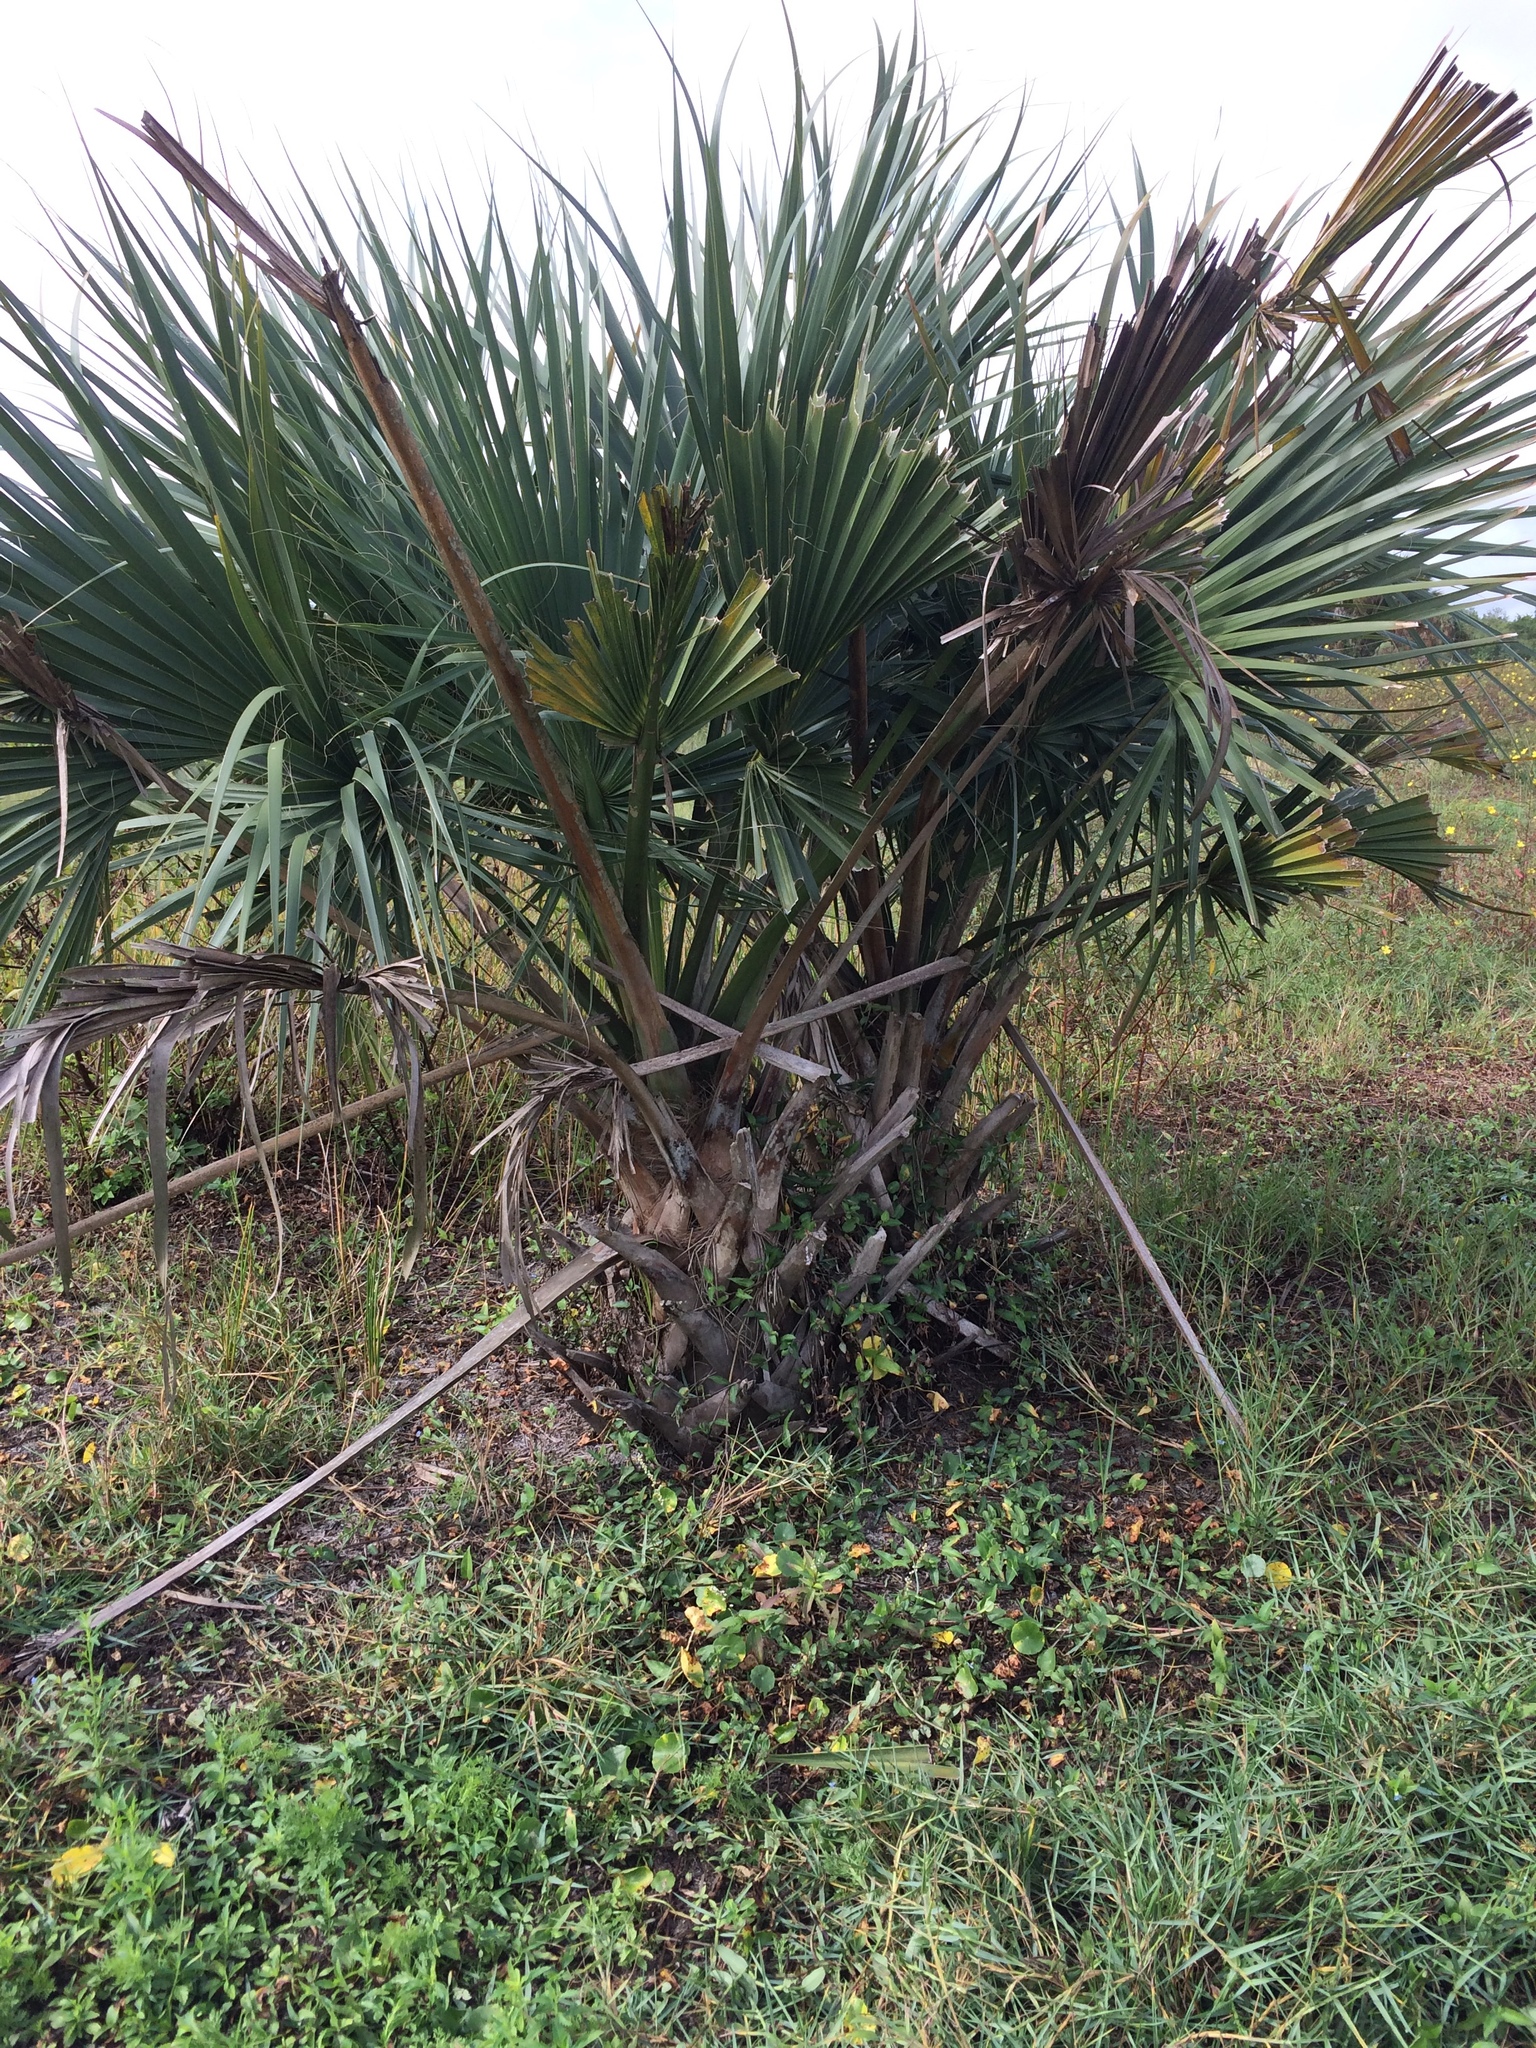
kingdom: Plantae
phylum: Tracheophyta
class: Liliopsida
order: Arecales
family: Arecaceae
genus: Sabal
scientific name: Sabal palmetto
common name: Blue palmetto
